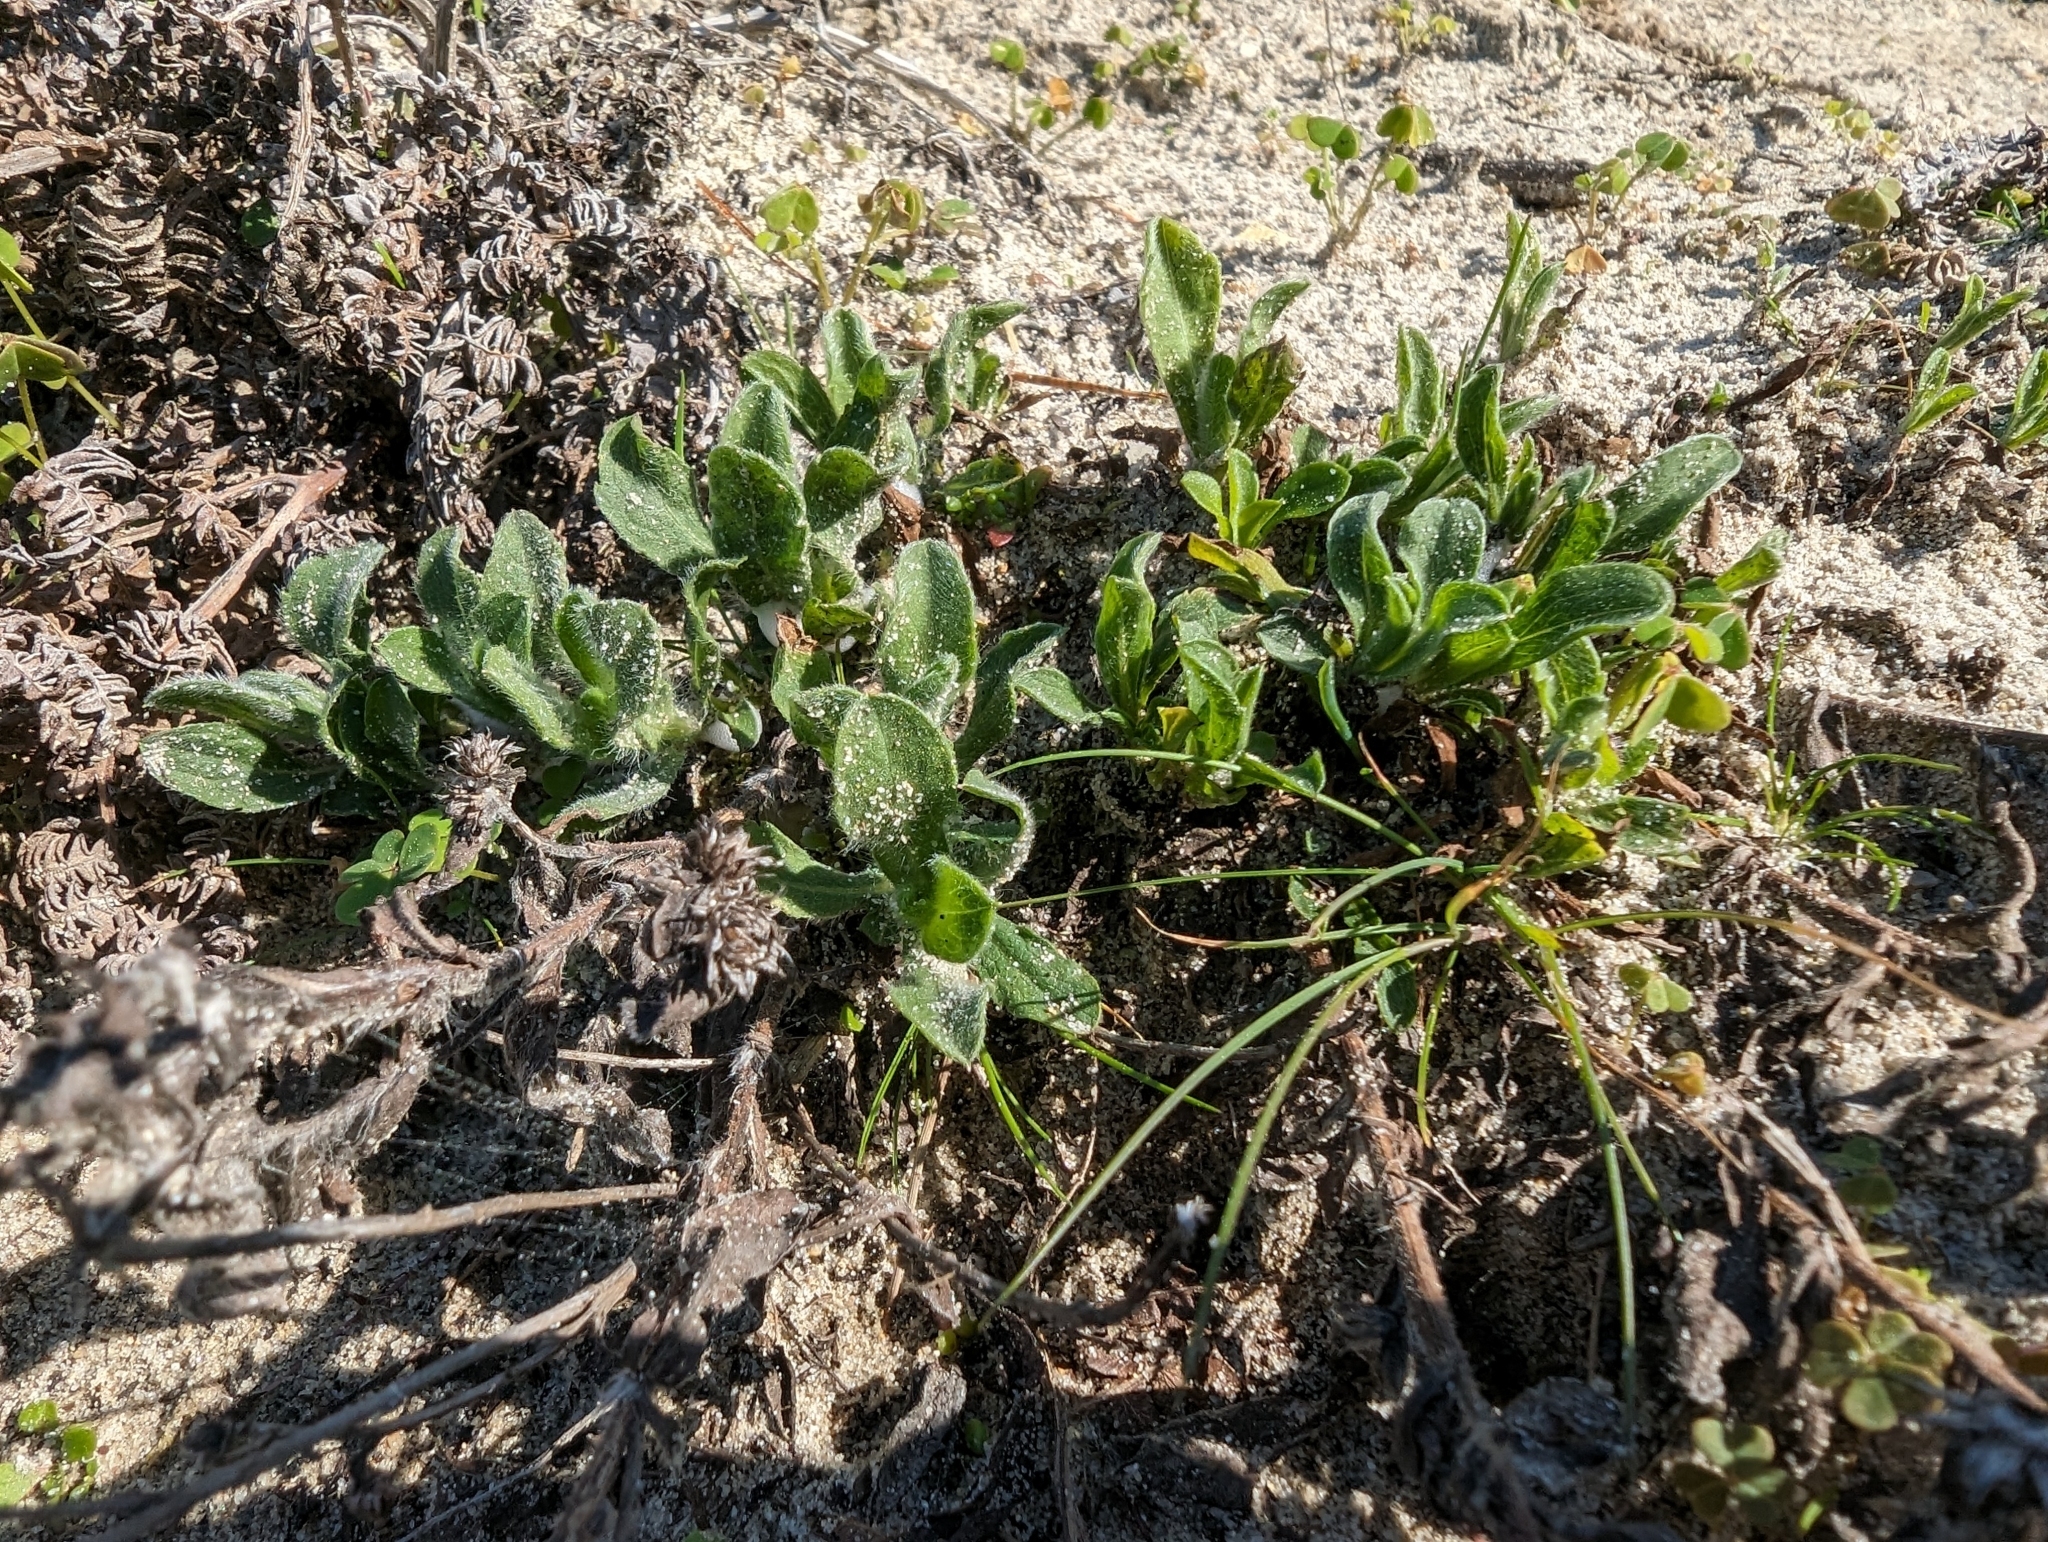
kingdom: Plantae
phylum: Tracheophyta
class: Magnoliopsida
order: Asterales
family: Asteraceae
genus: Heterotheca
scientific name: Heterotheca bolanderi
